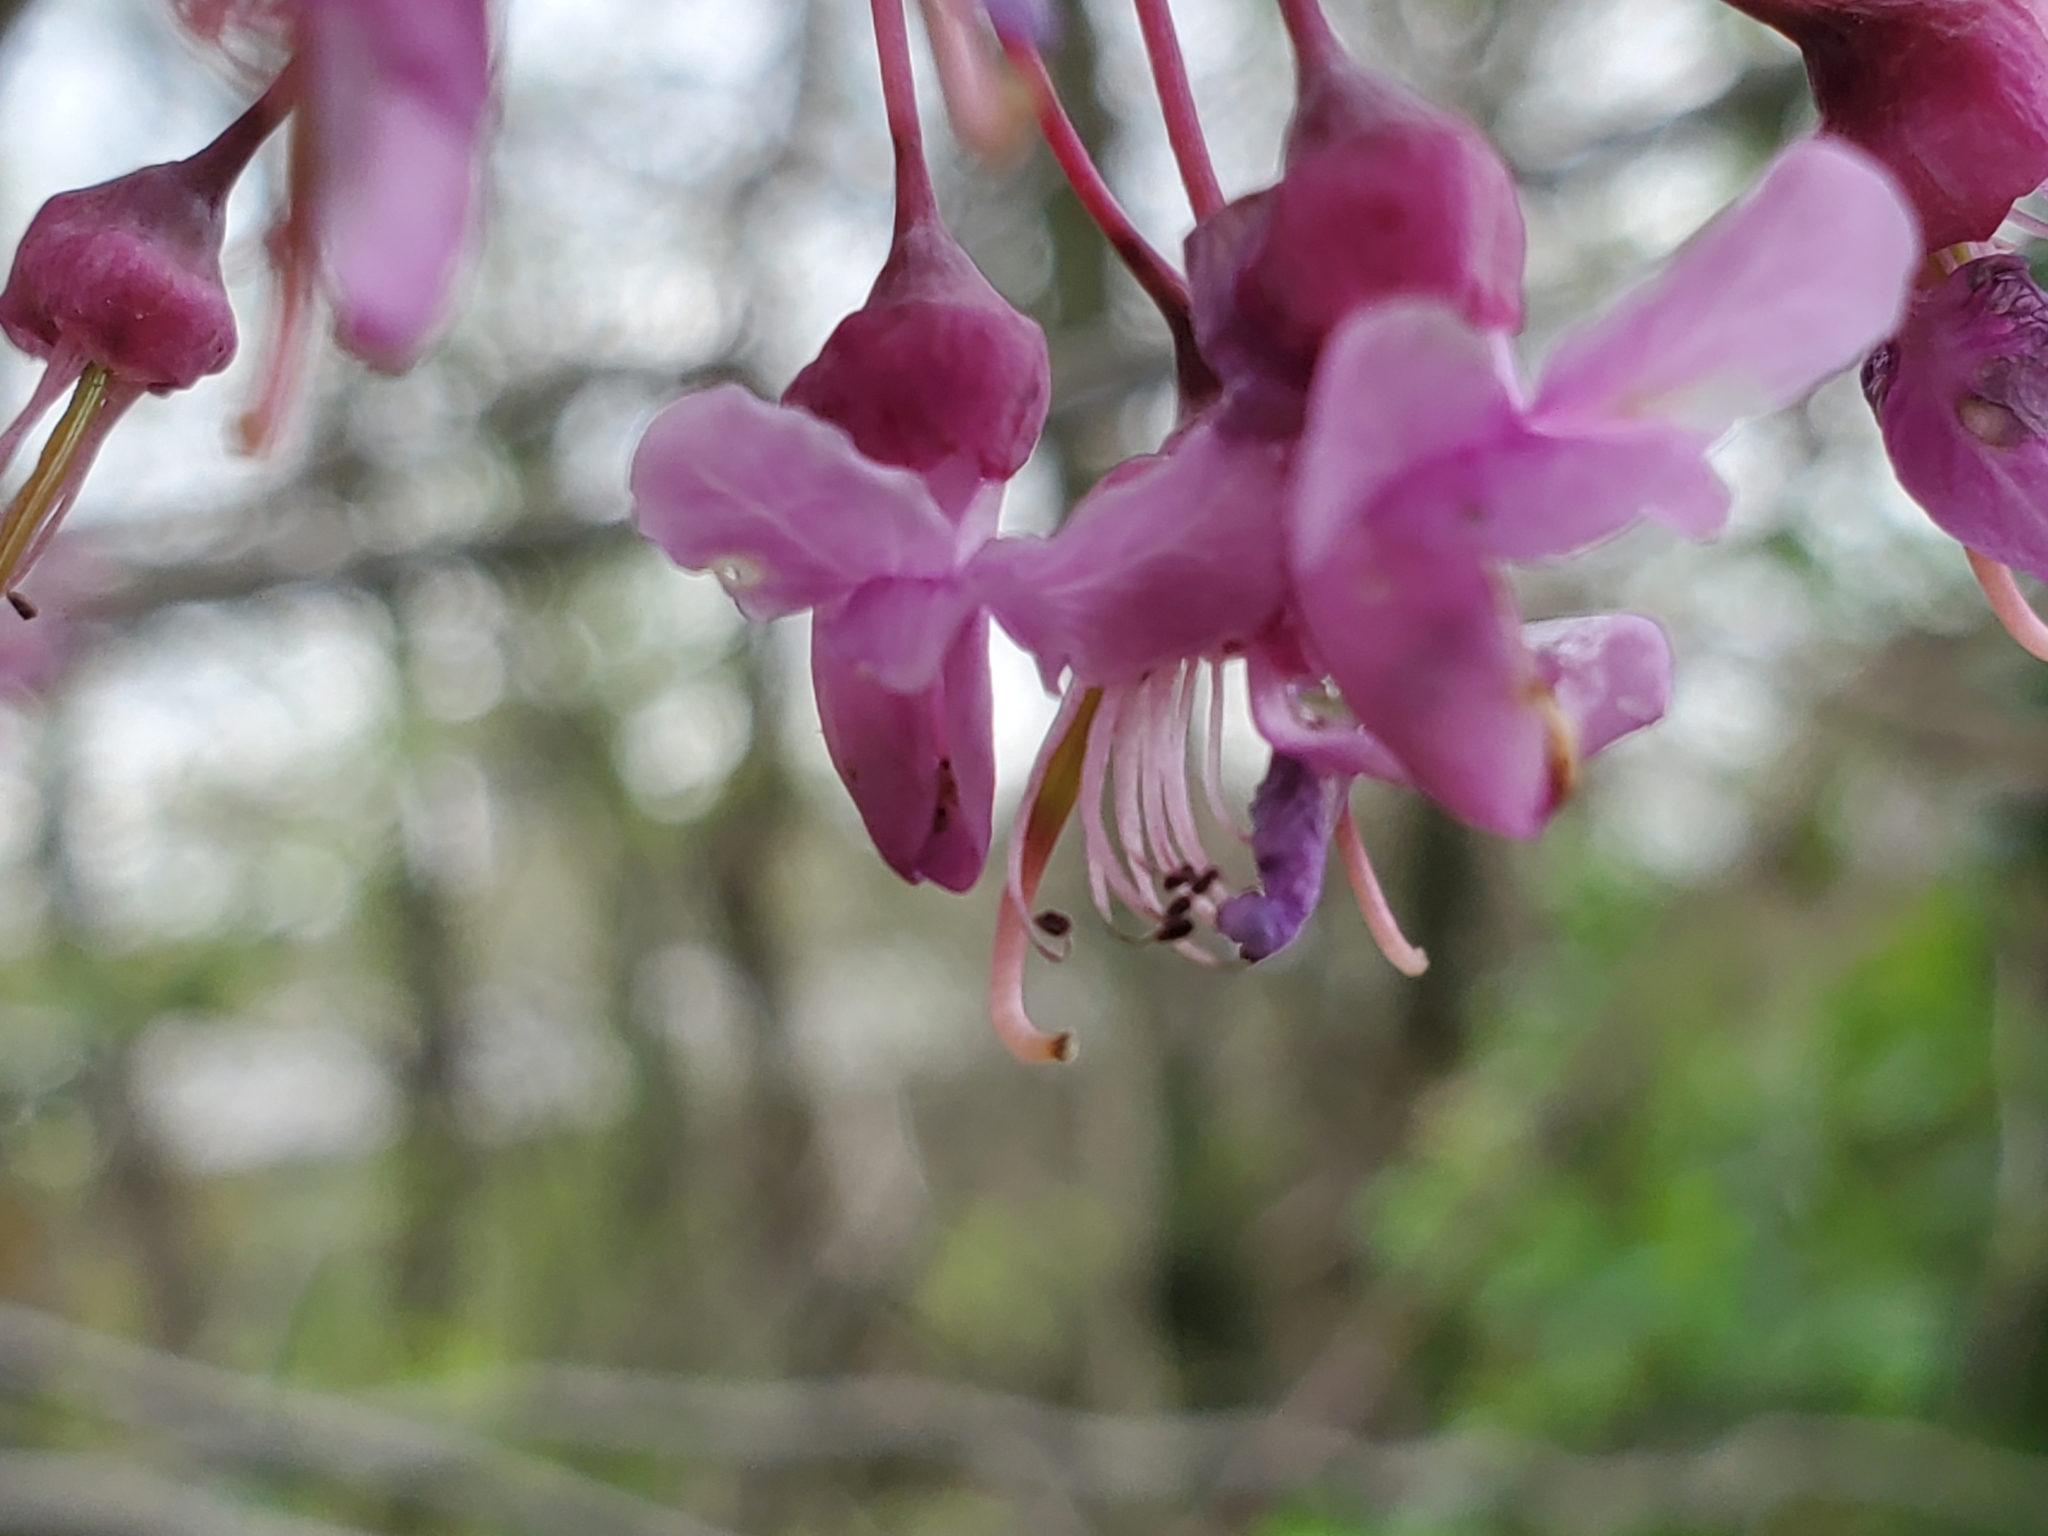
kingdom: Plantae
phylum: Tracheophyta
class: Magnoliopsida
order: Fabales
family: Fabaceae
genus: Cercis
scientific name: Cercis canadensis
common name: Eastern redbud
